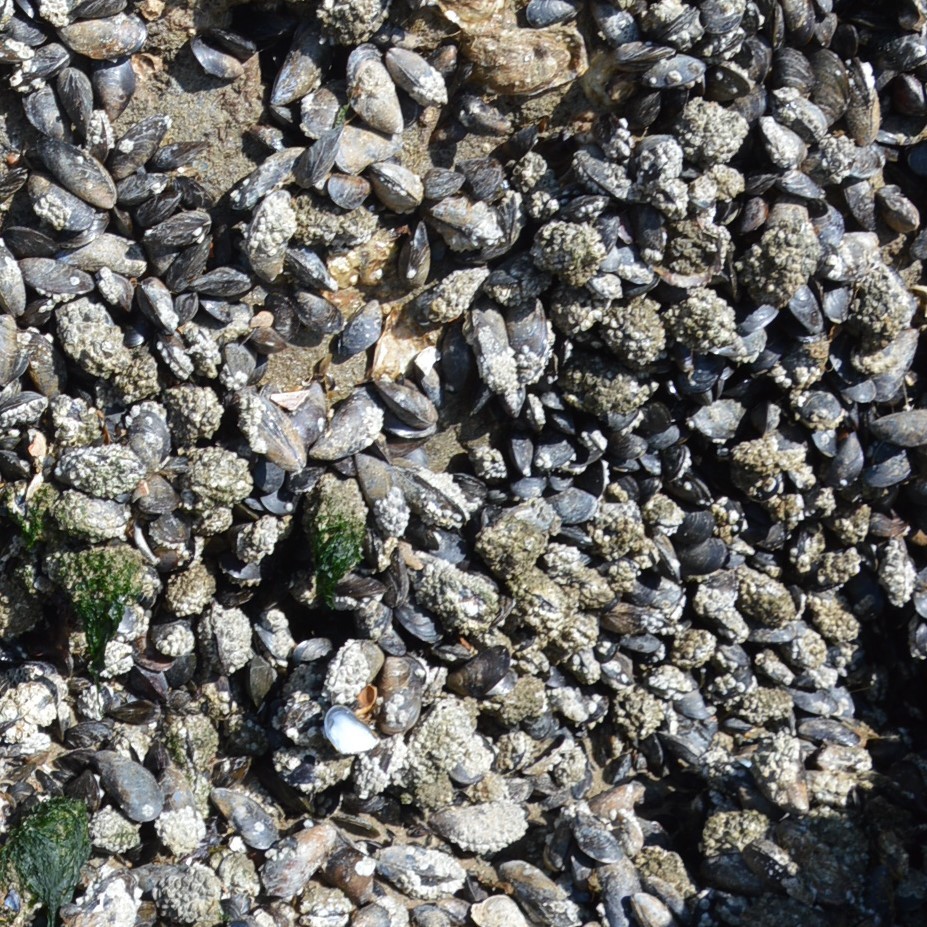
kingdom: Animalia
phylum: Mollusca
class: Bivalvia
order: Mytilida
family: Mytilidae
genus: Mytilus
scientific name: Mytilus edulis
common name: Blue mussel
